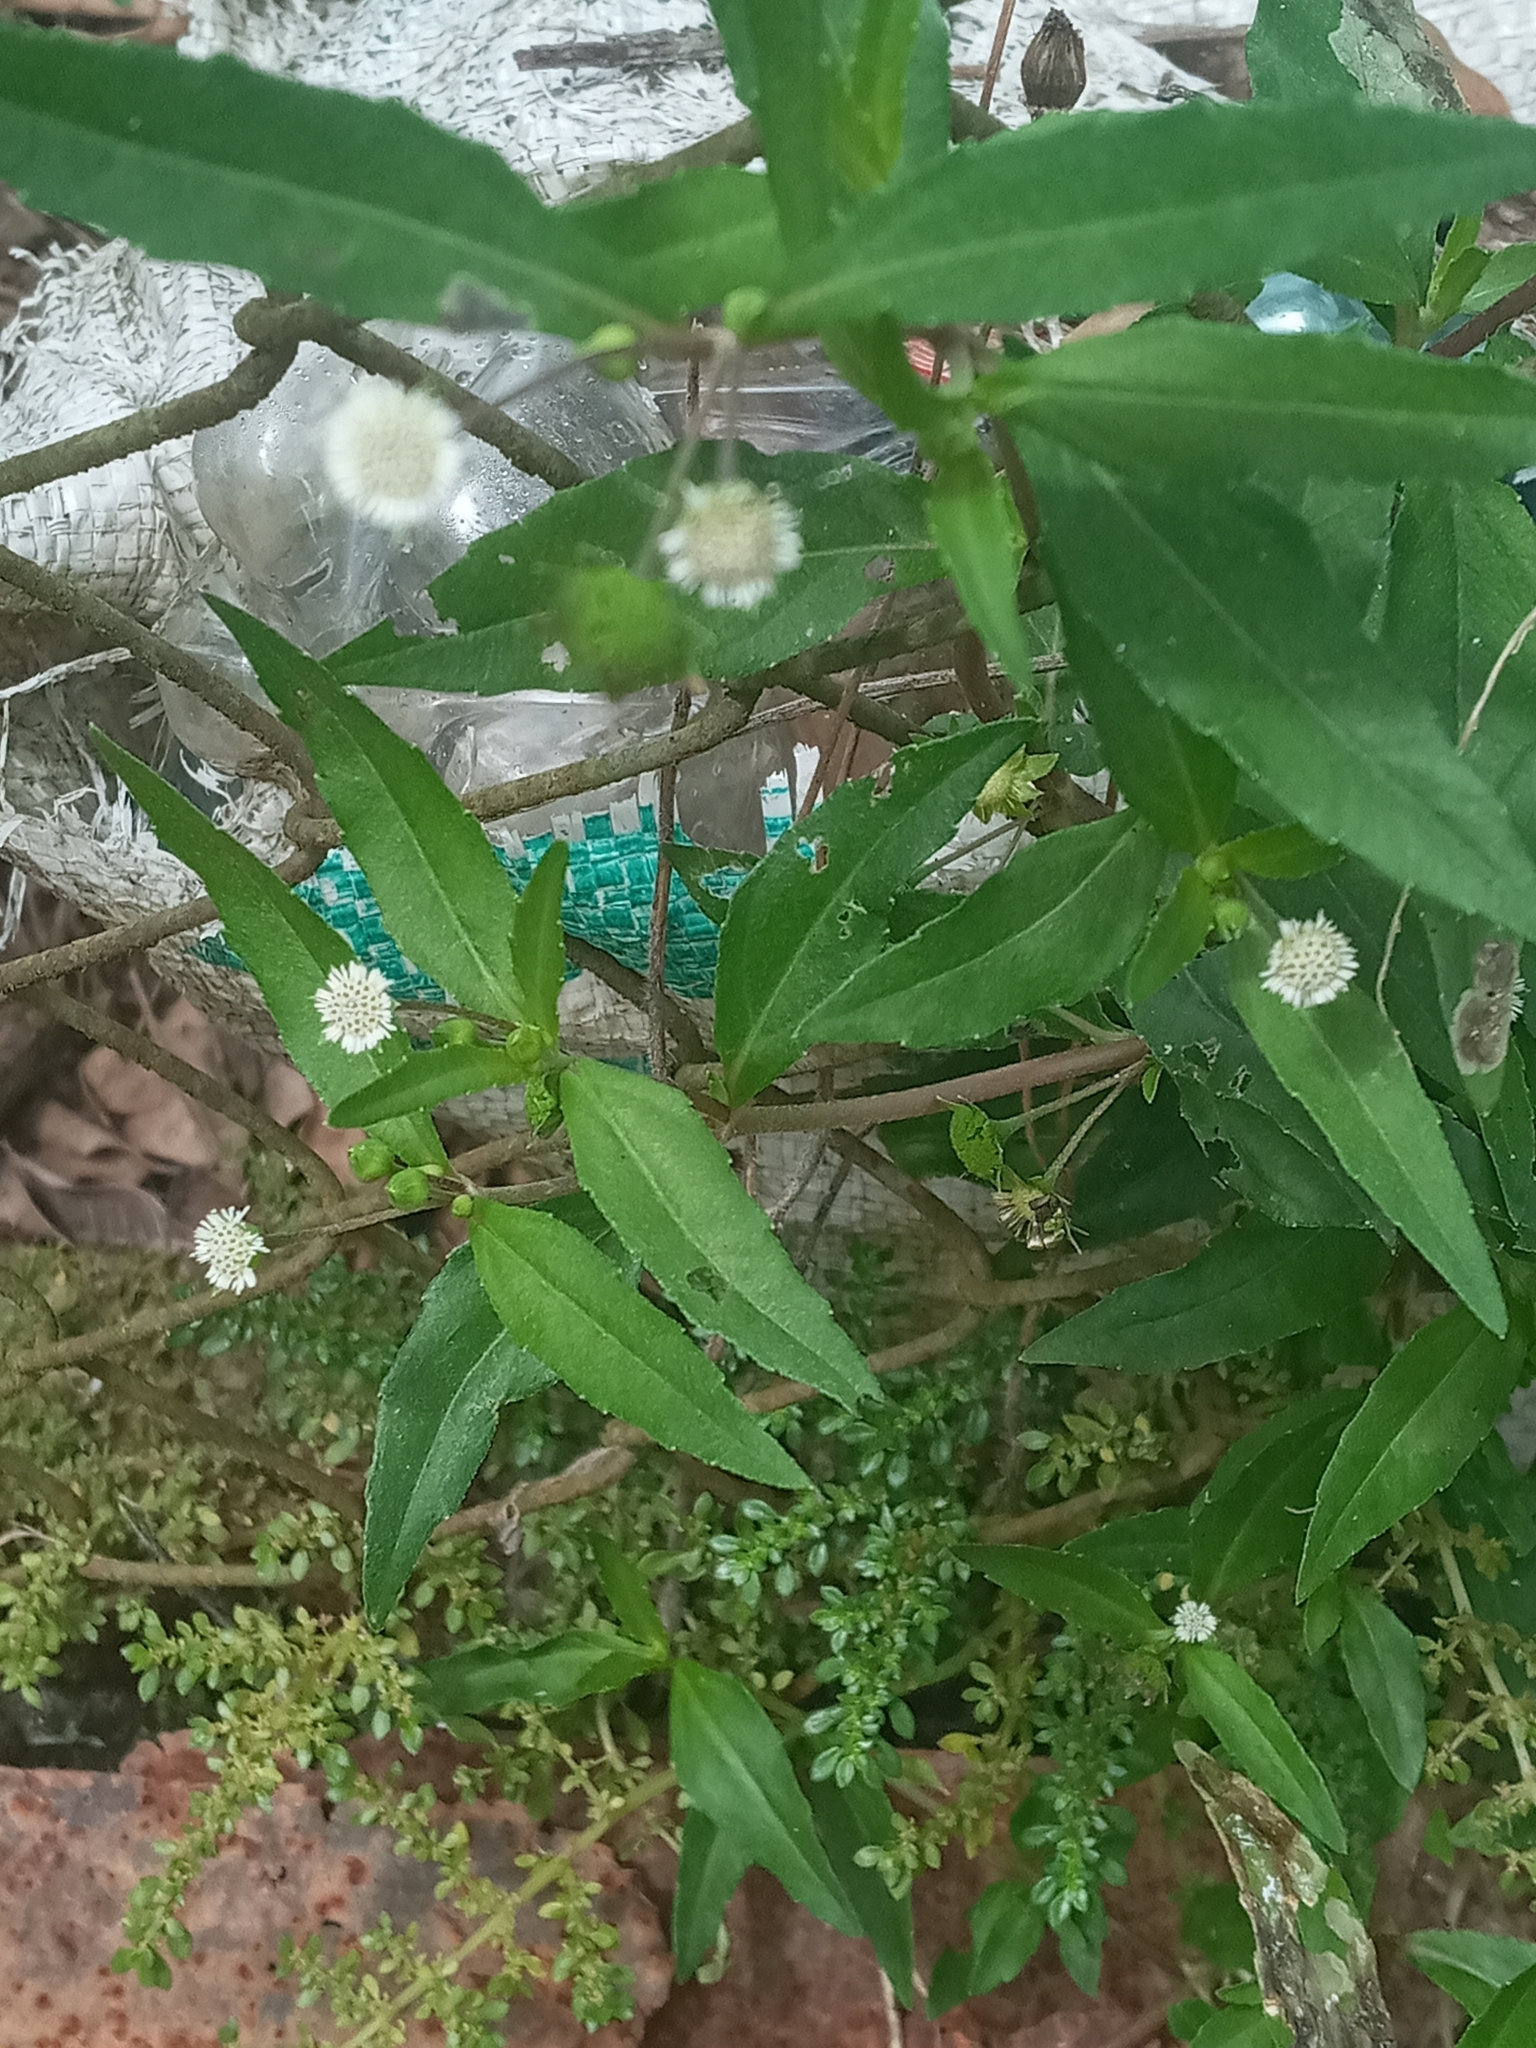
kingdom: Plantae
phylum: Tracheophyta
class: Magnoliopsida
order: Asterales
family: Asteraceae
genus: Eclipta
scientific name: Eclipta prostrata
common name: False daisy
